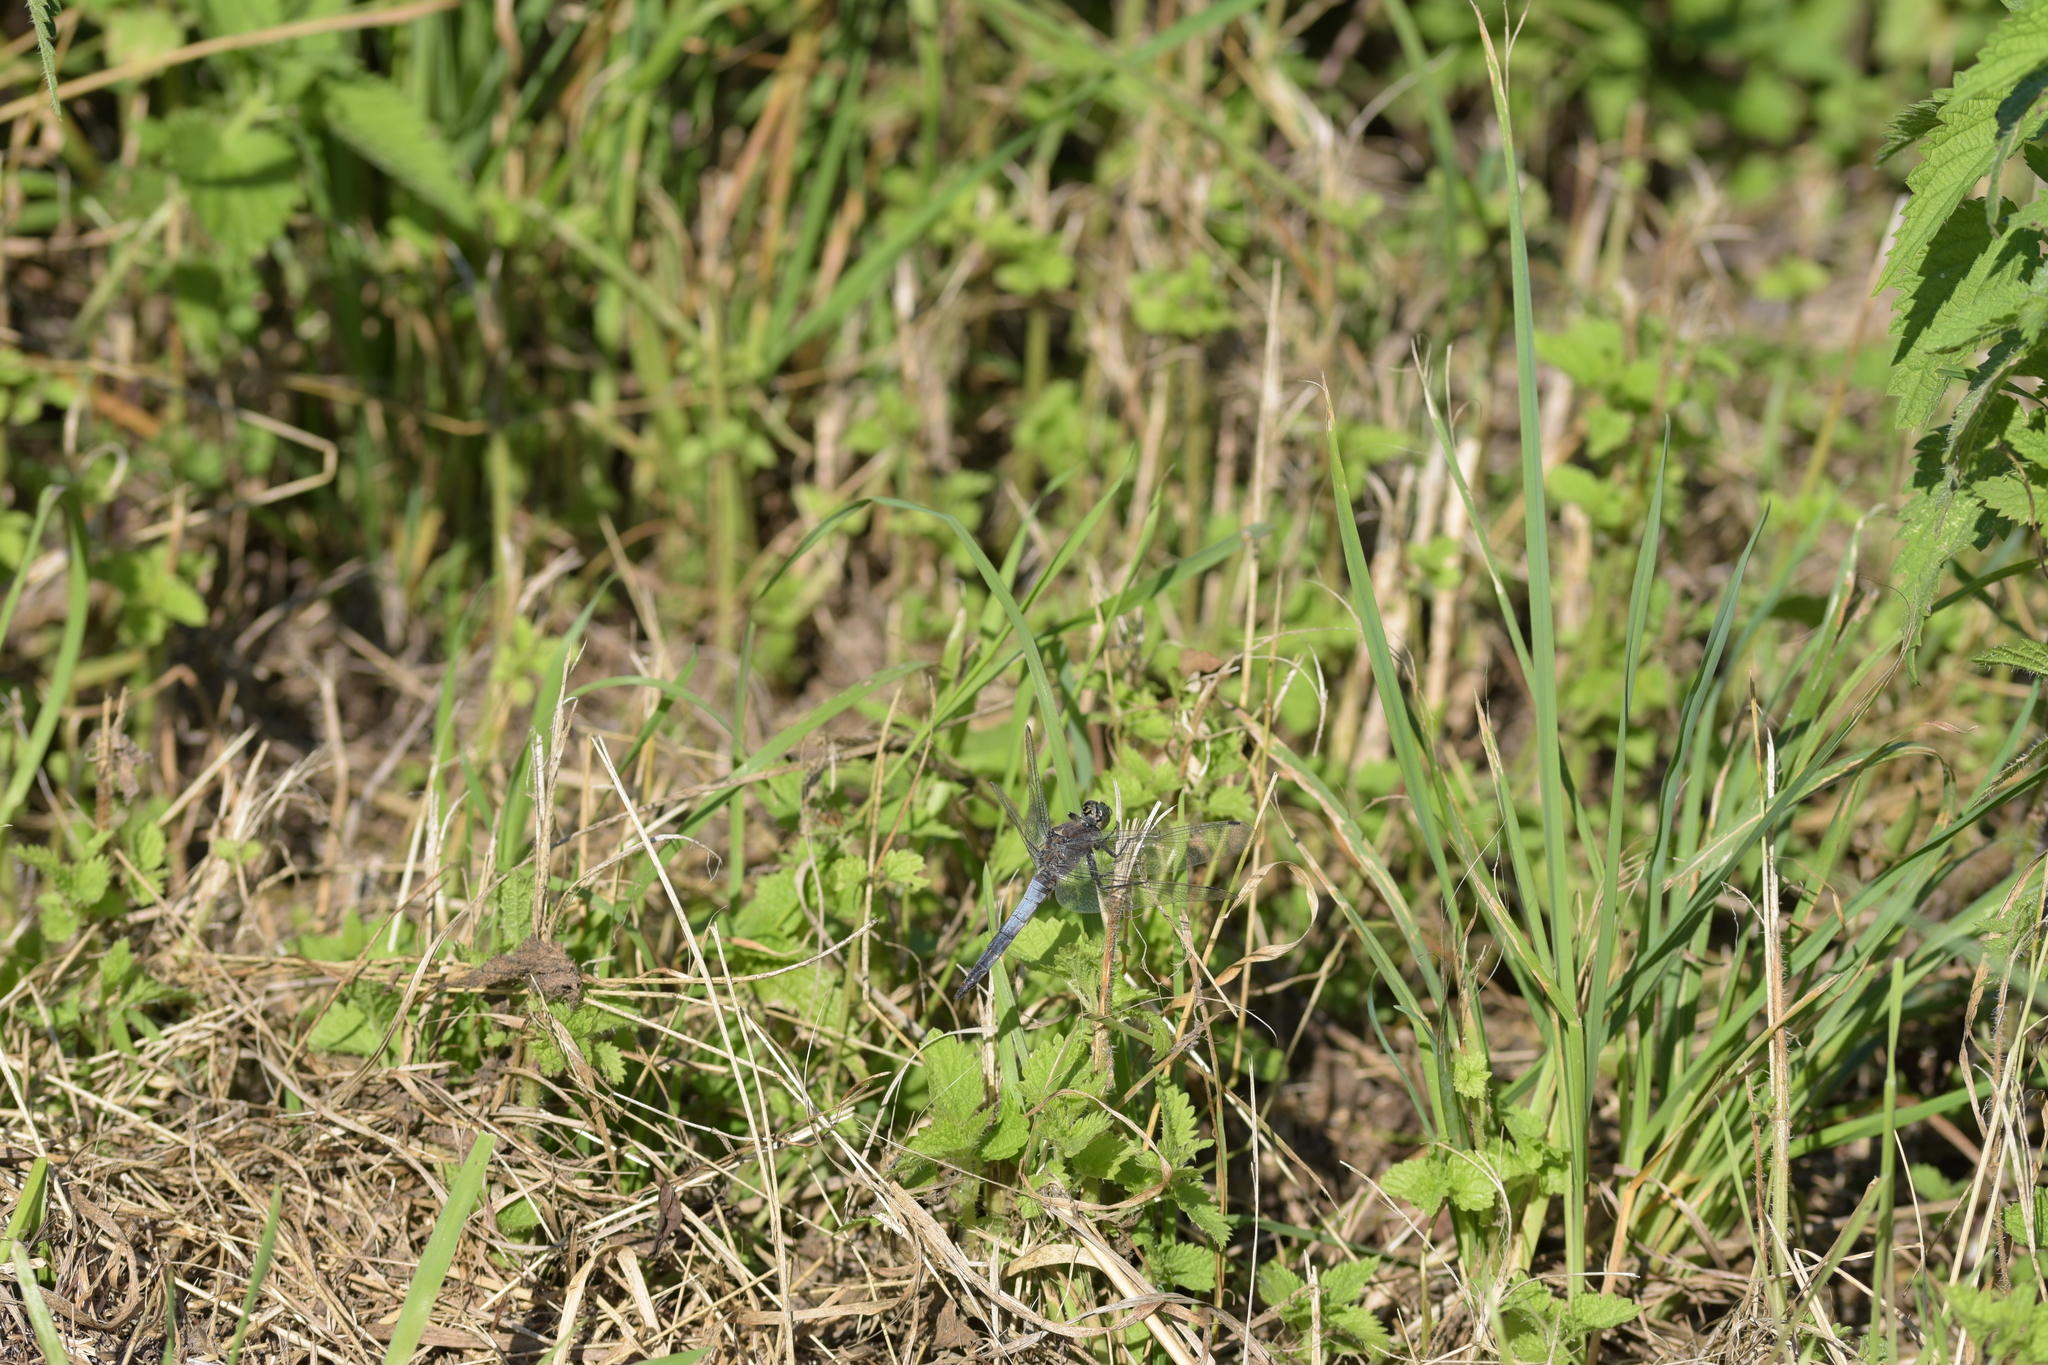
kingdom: Animalia
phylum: Arthropoda
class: Insecta
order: Odonata
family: Libellulidae
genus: Orthetrum
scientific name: Orthetrum cancellatum
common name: Black-tailed skimmer
